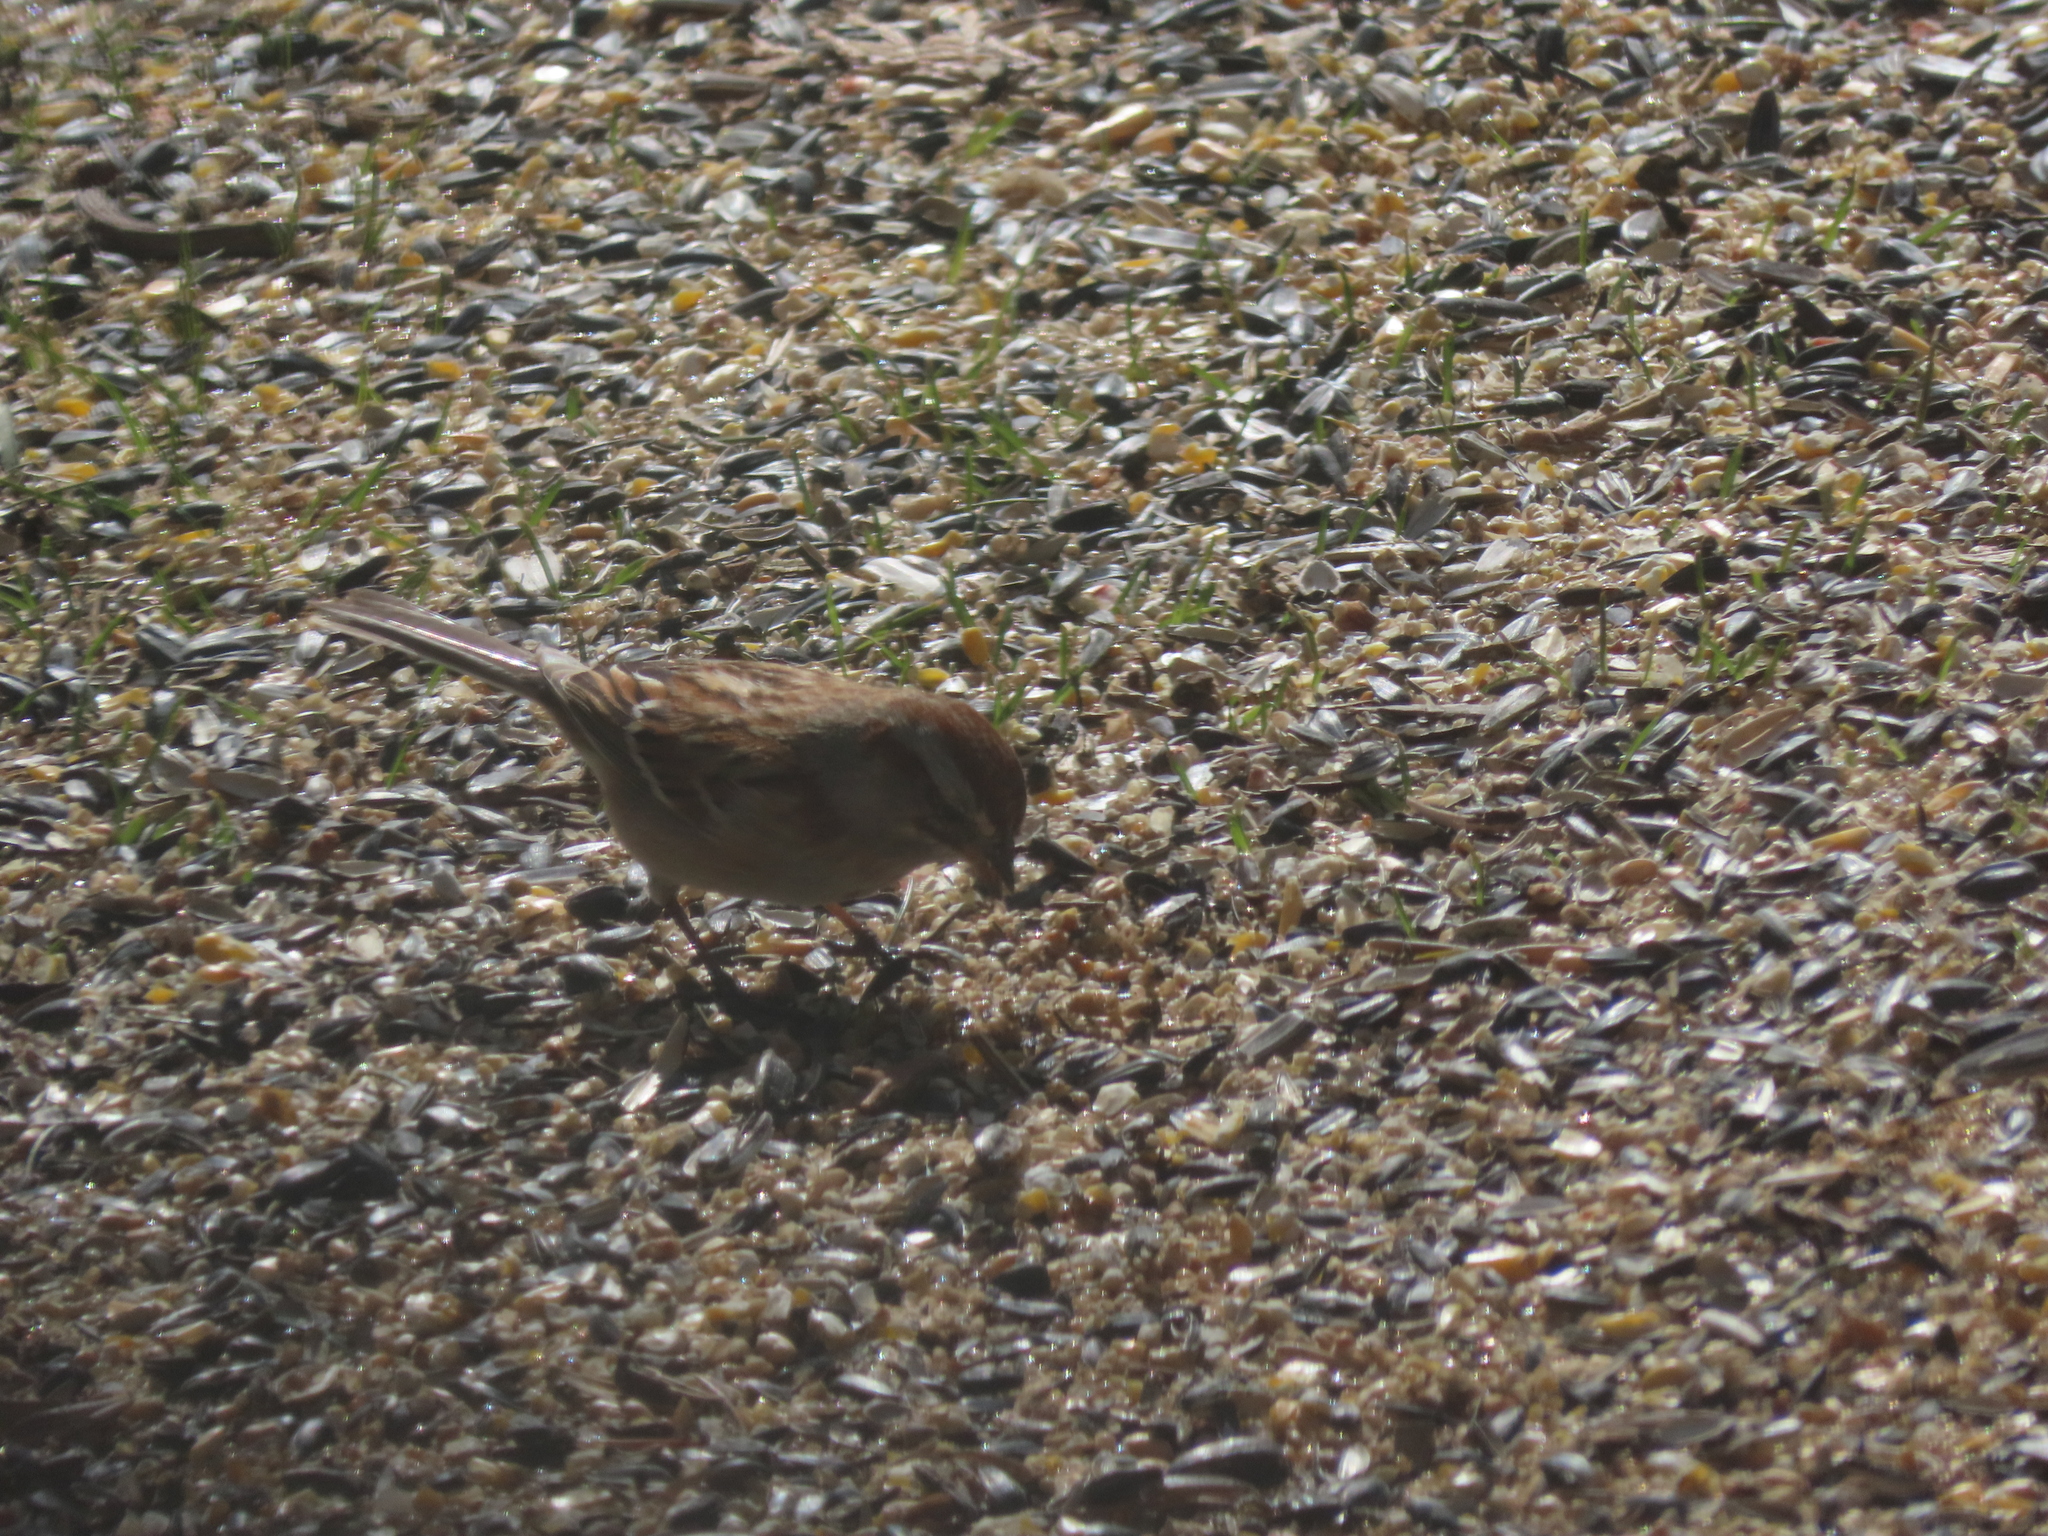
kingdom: Animalia
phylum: Chordata
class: Aves
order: Passeriformes
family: Passerellidae
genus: Spizelloides
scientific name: Spizelloides arborea
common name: American tree sparrow
